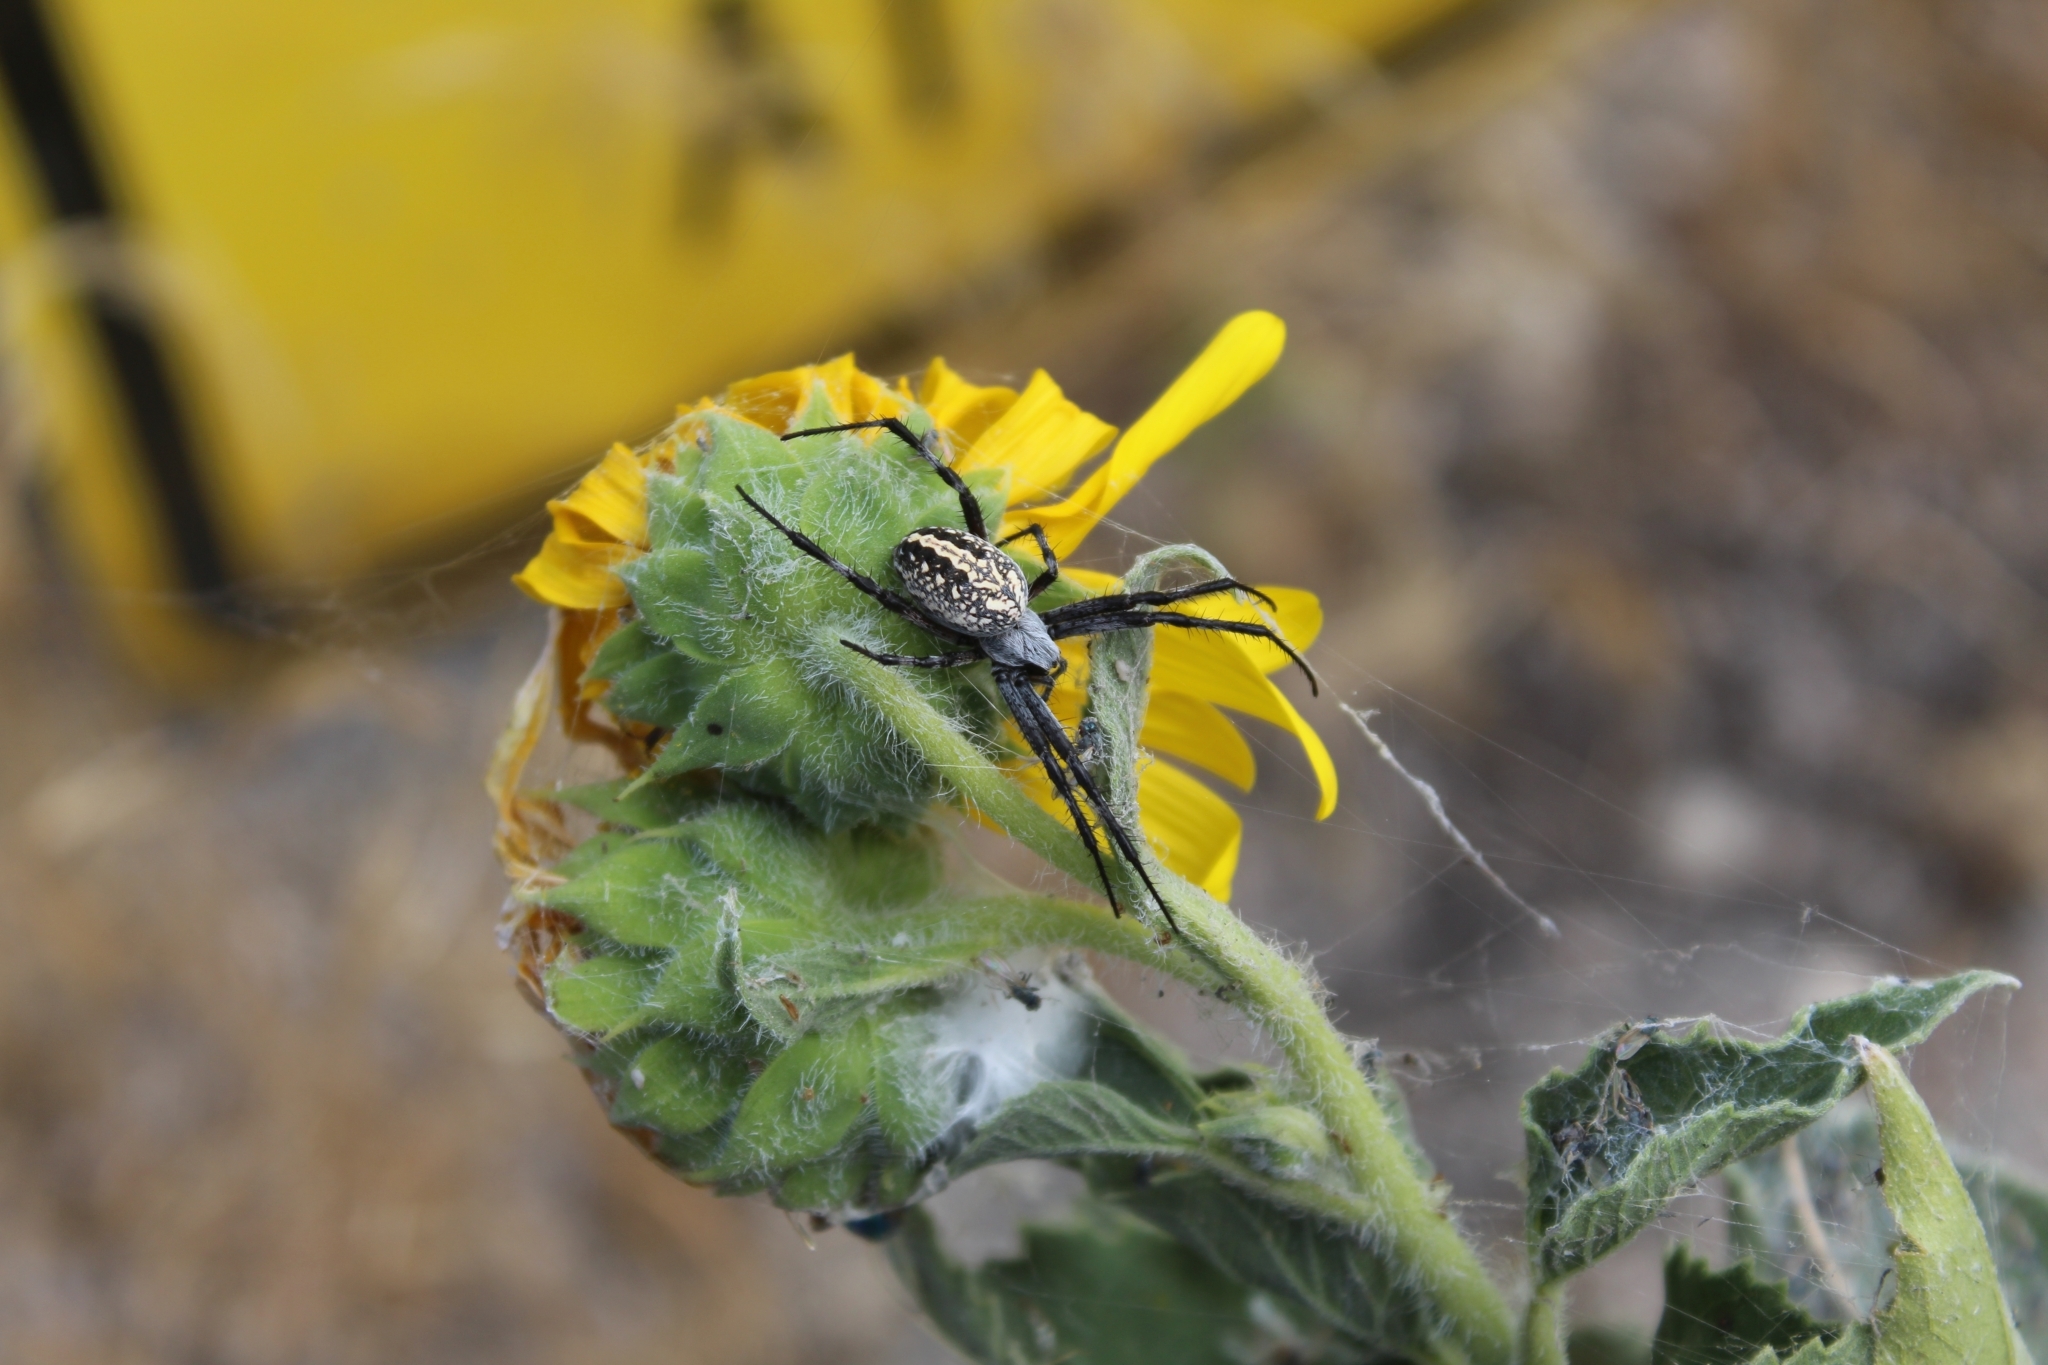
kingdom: Animalia
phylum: Arthropoda
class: Arachnida
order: Araneae
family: Araneidae
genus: Neoscona
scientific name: Neoscona oaxacensis
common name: Orb weavers
